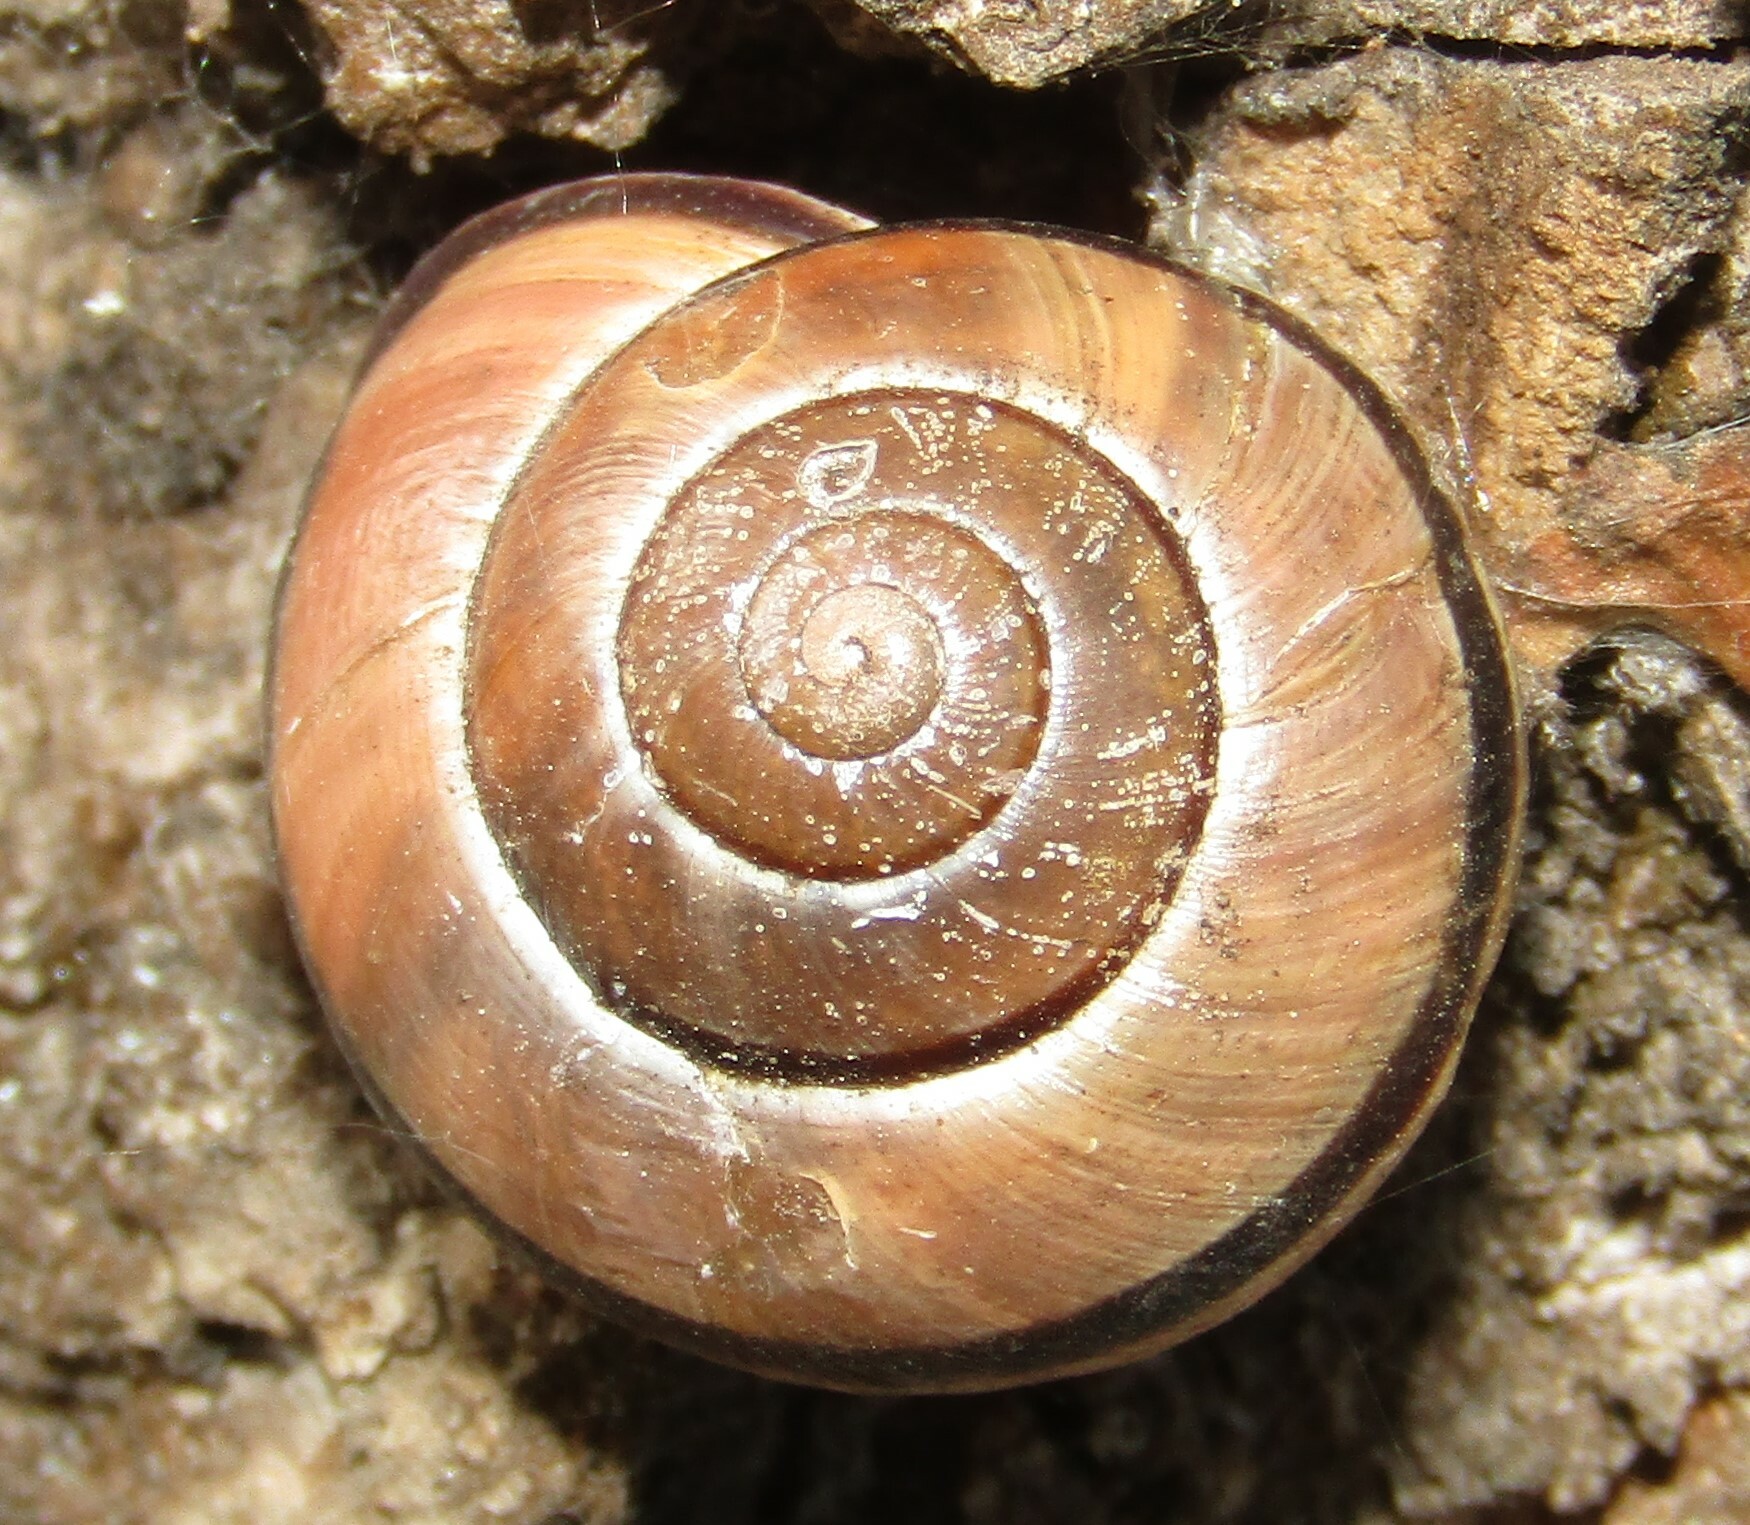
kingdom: Animalia
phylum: Mollusca
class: Gastropoda
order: Stylommatophora
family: Helicidae
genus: Cepaea
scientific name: Cepaea nemoralis
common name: Grovesnail
